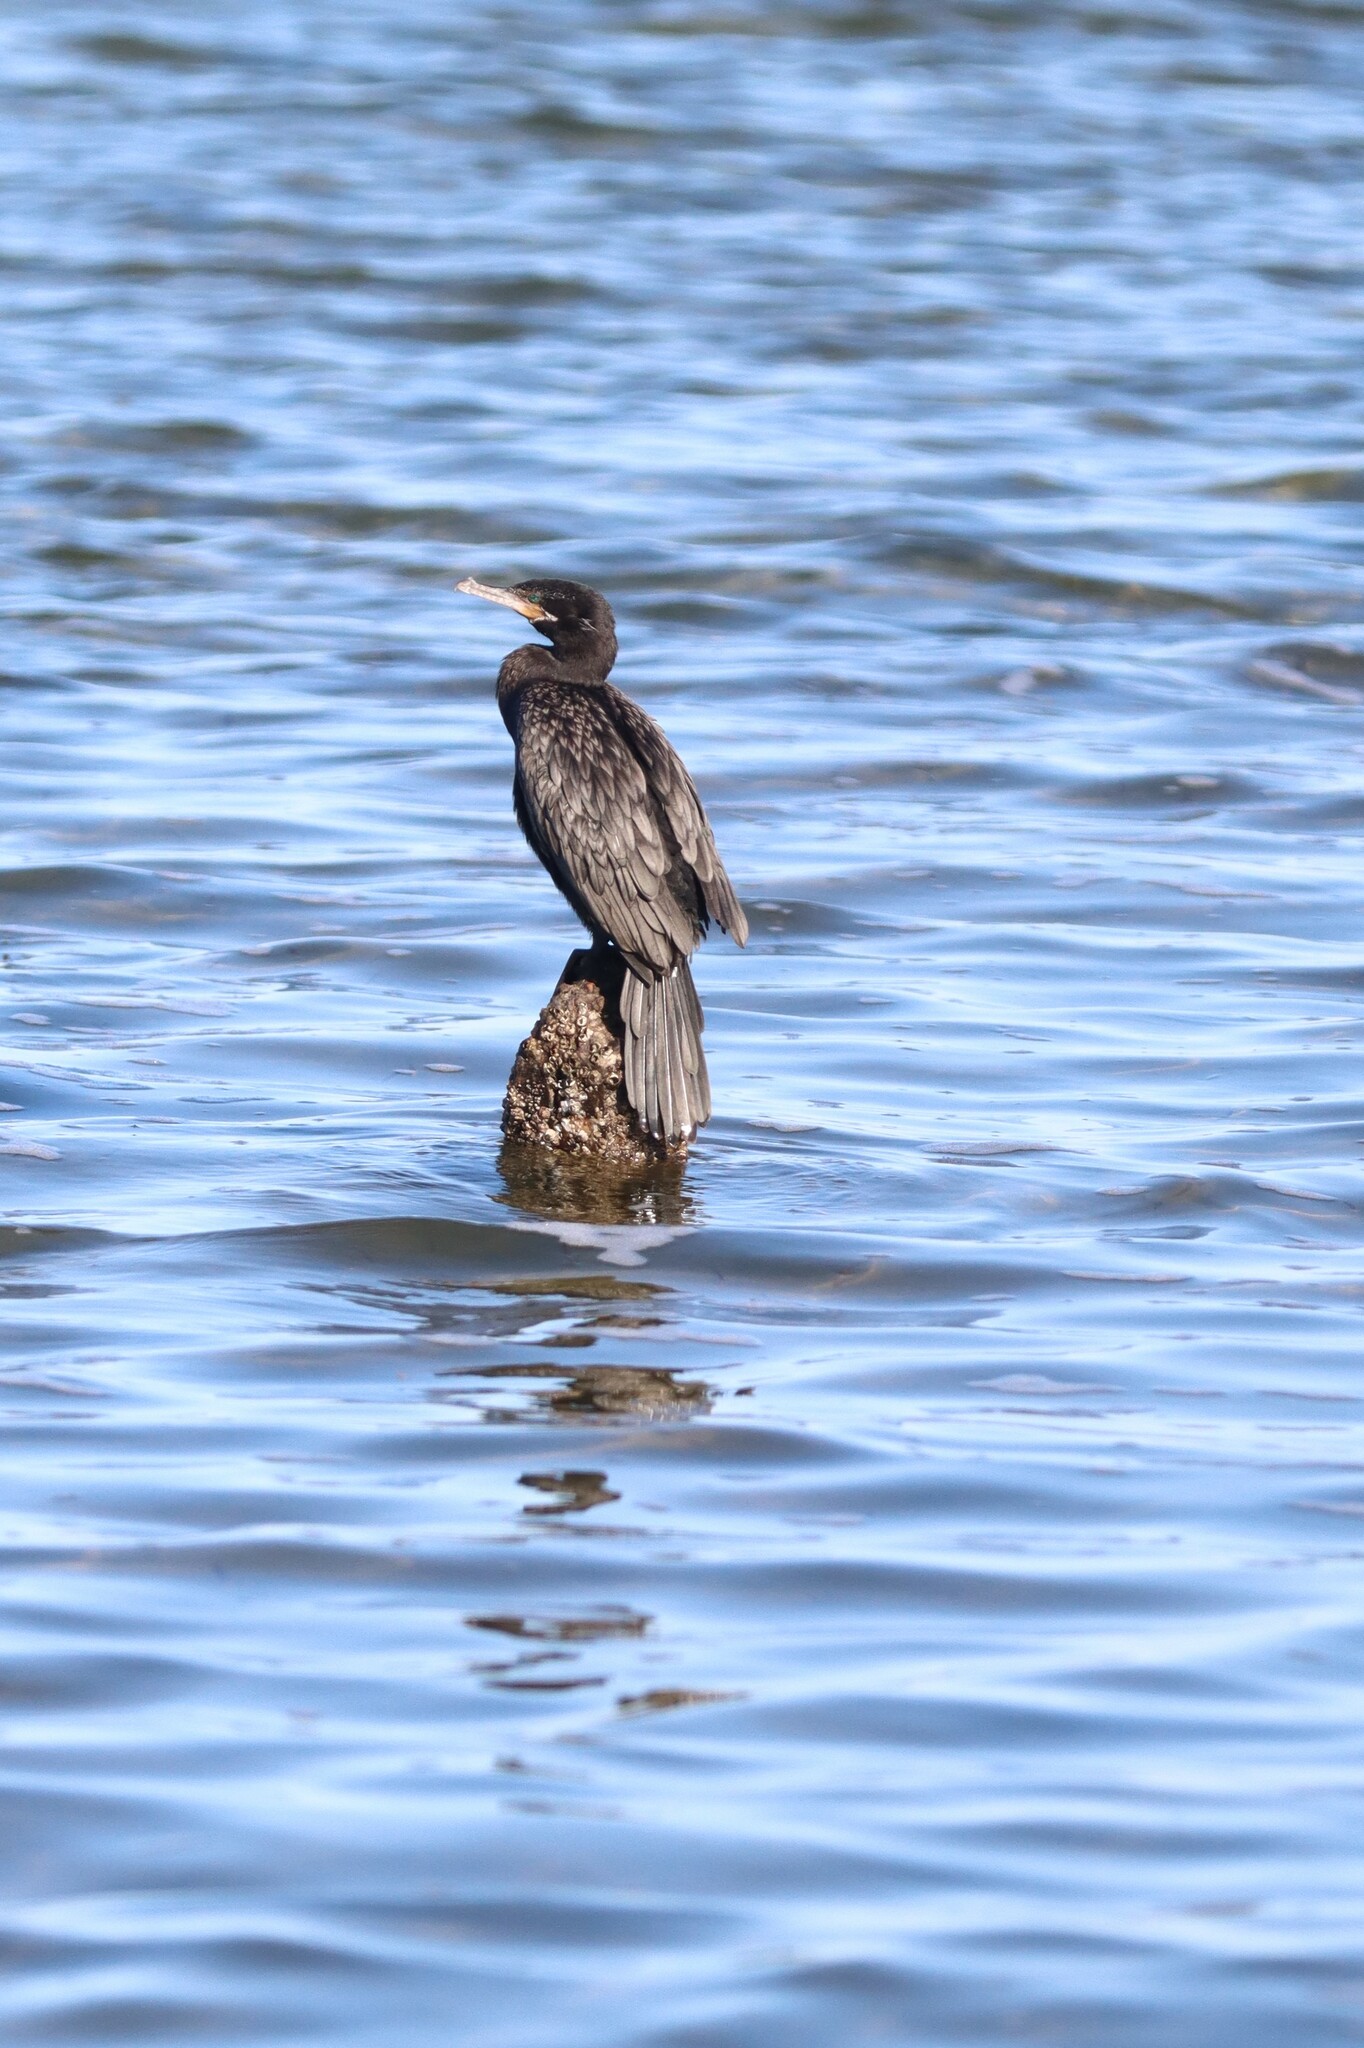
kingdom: Animalia
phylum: Chordata
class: Aves
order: Suliformes
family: Phalacrocoracidae
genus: Phalacrocorax
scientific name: Phalacrocorax brasilianus
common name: Neotropic cormorant
